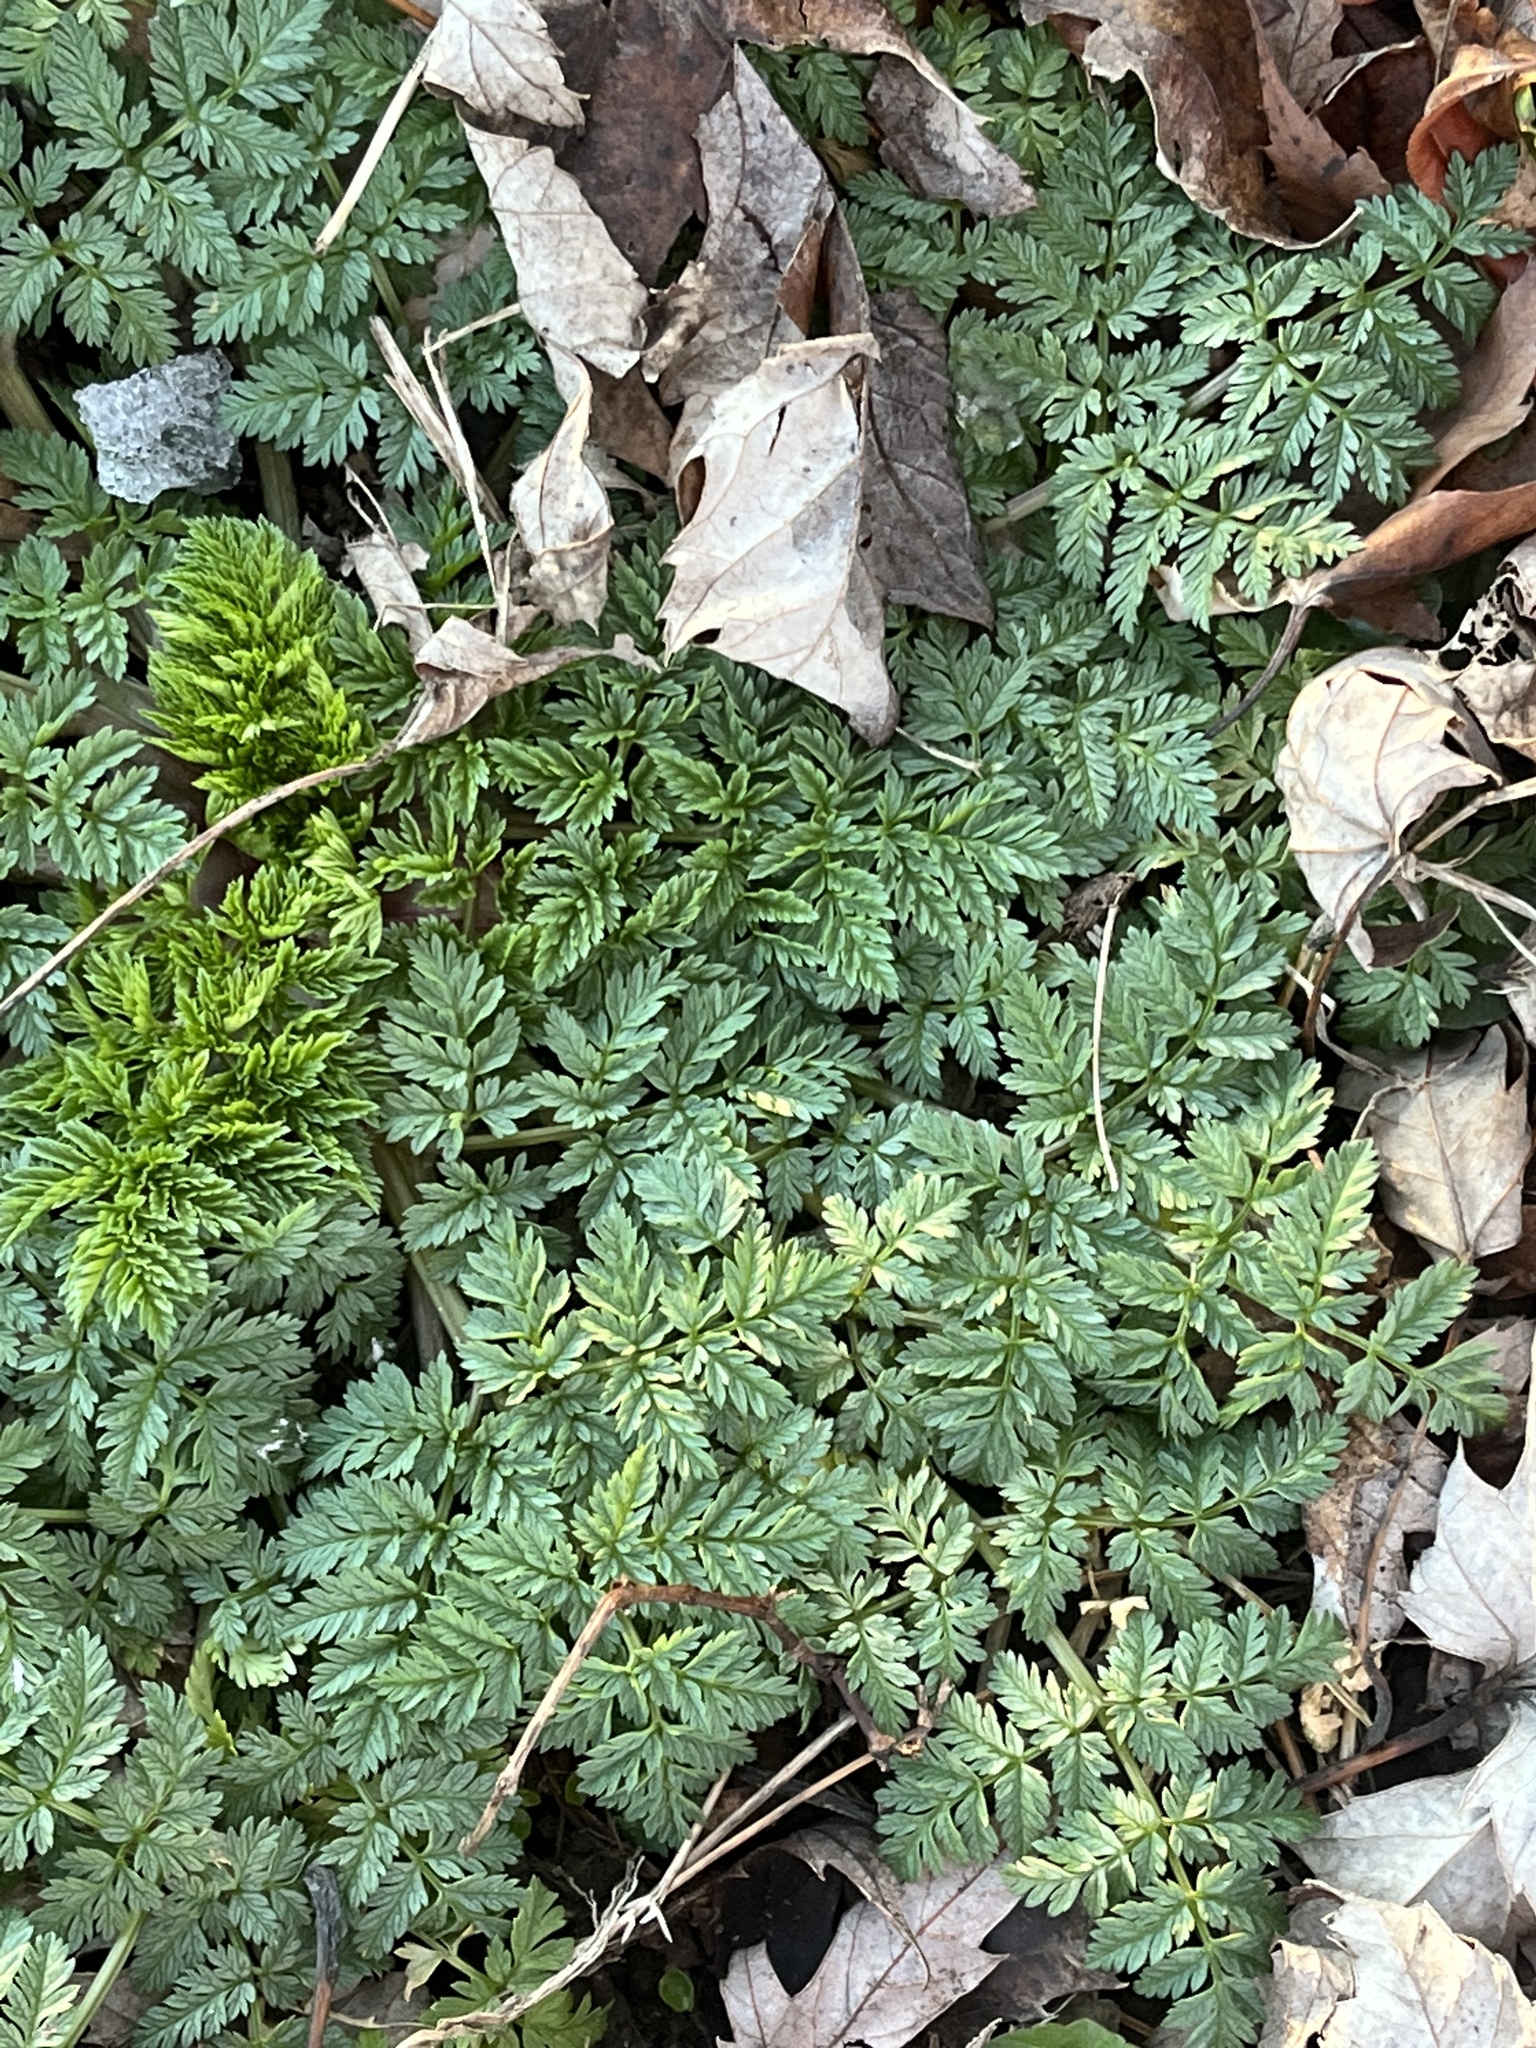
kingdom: Plantae
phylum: Tracheophyta
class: Magnoliopsida
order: Apiales
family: Apiaceae
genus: Conium
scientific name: Conium maculatum
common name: Hemlock
